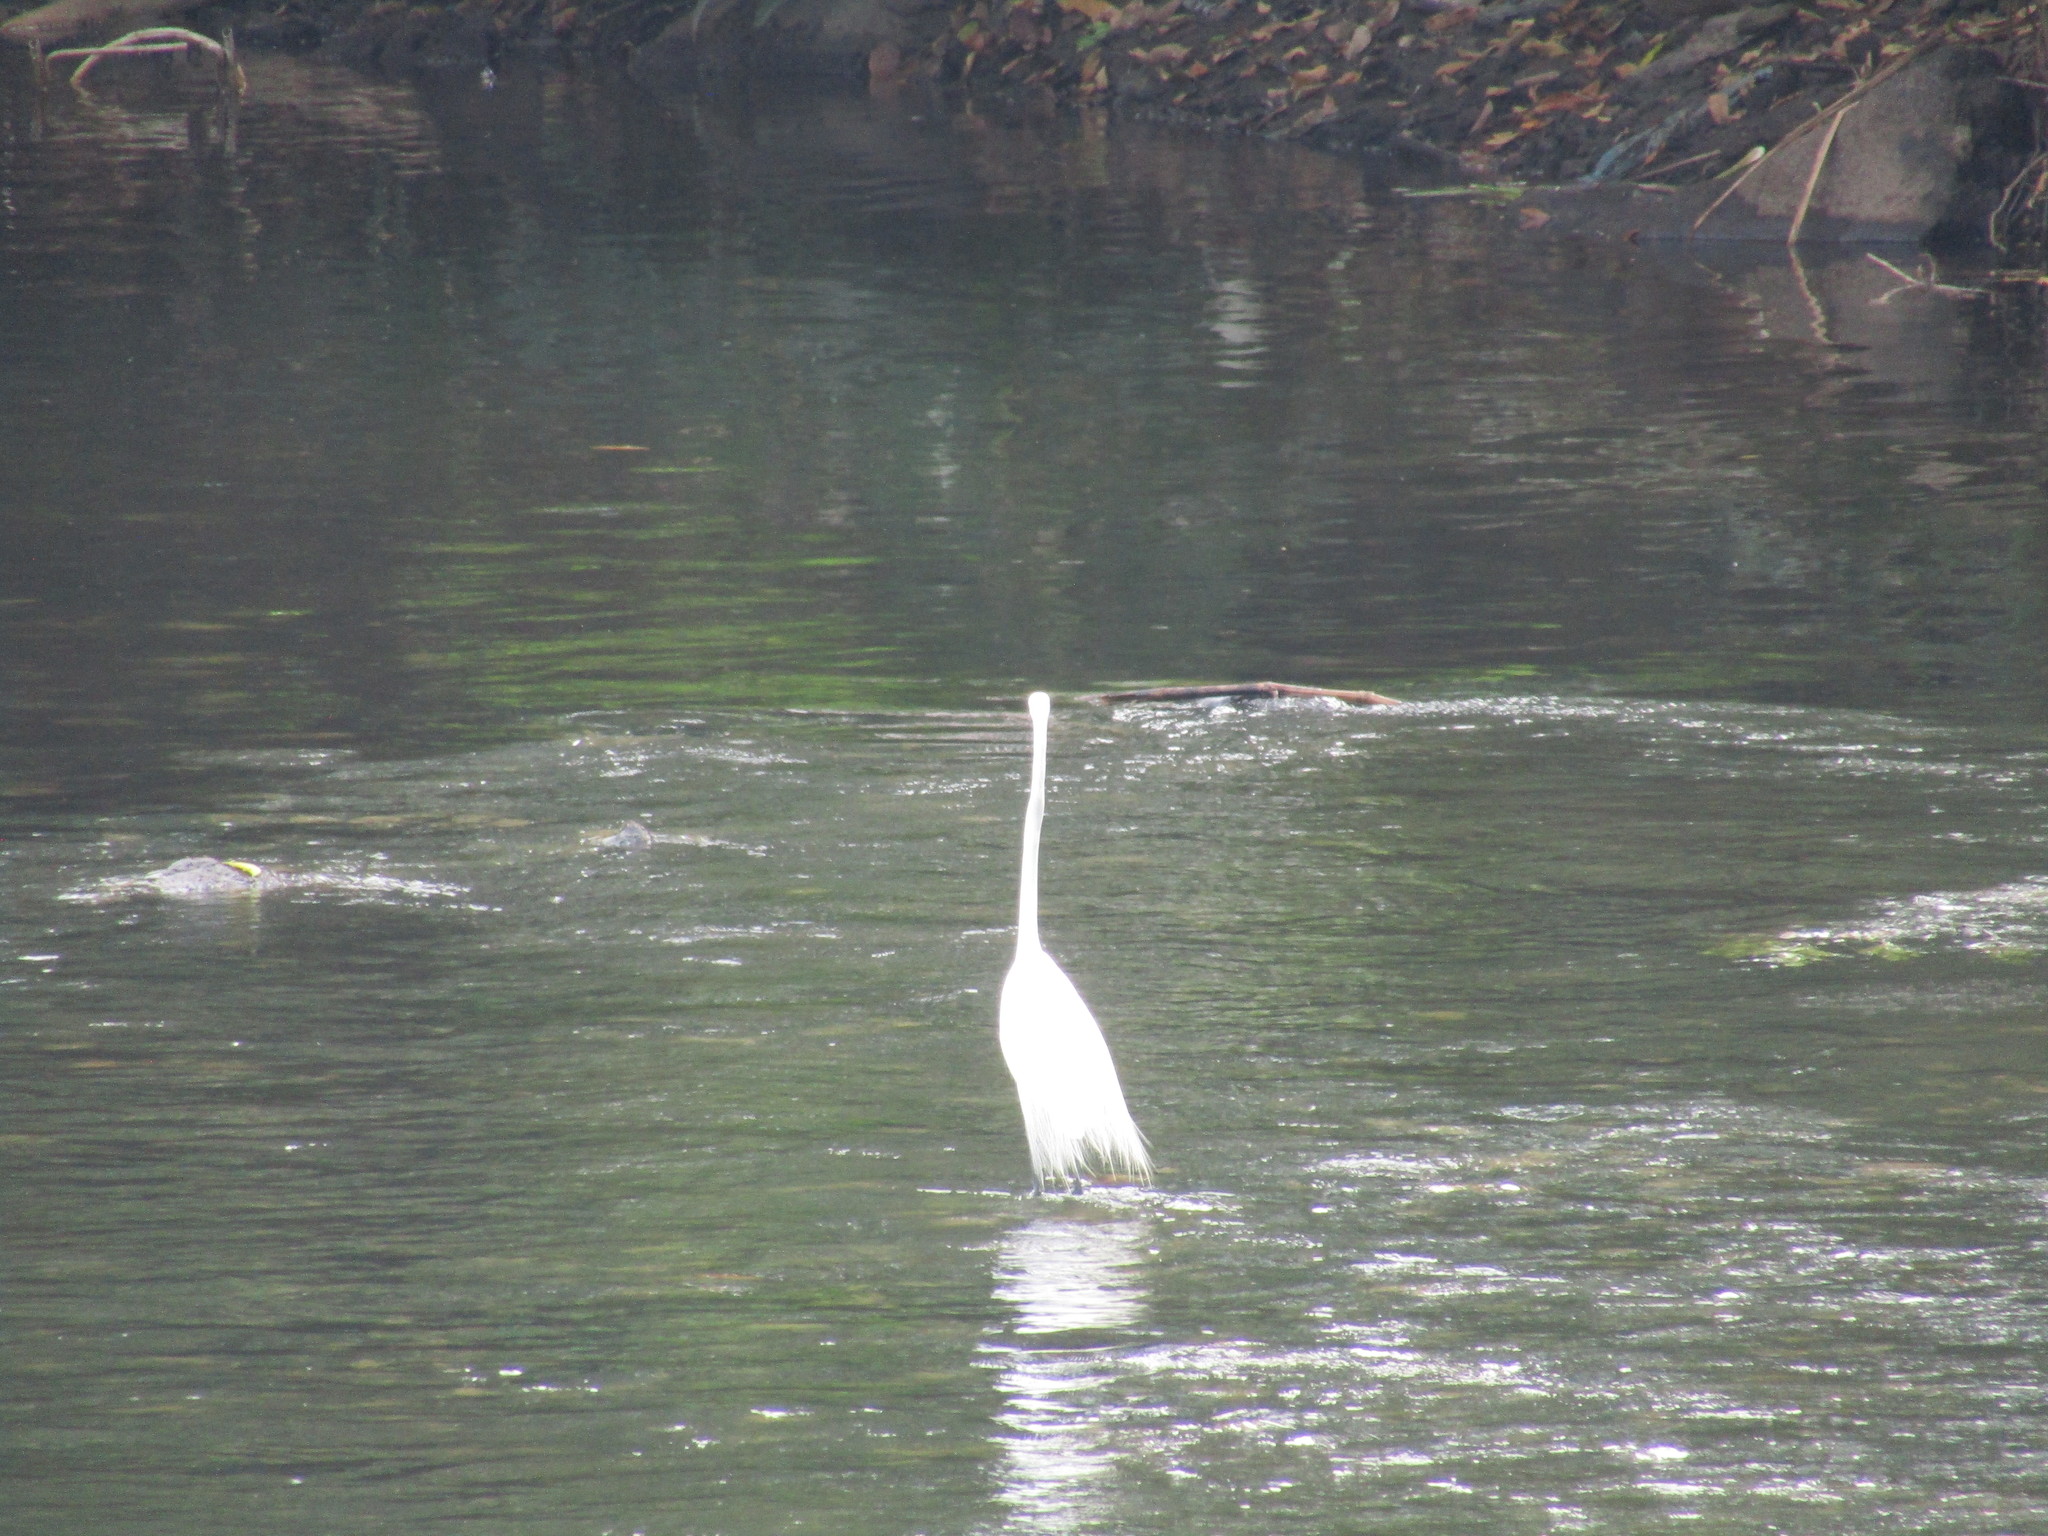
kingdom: Animalia
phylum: Chordata
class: Aves
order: Pelecaniformes
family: Ardeidae
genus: Ardea
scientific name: Ardea alba
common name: Great egret
